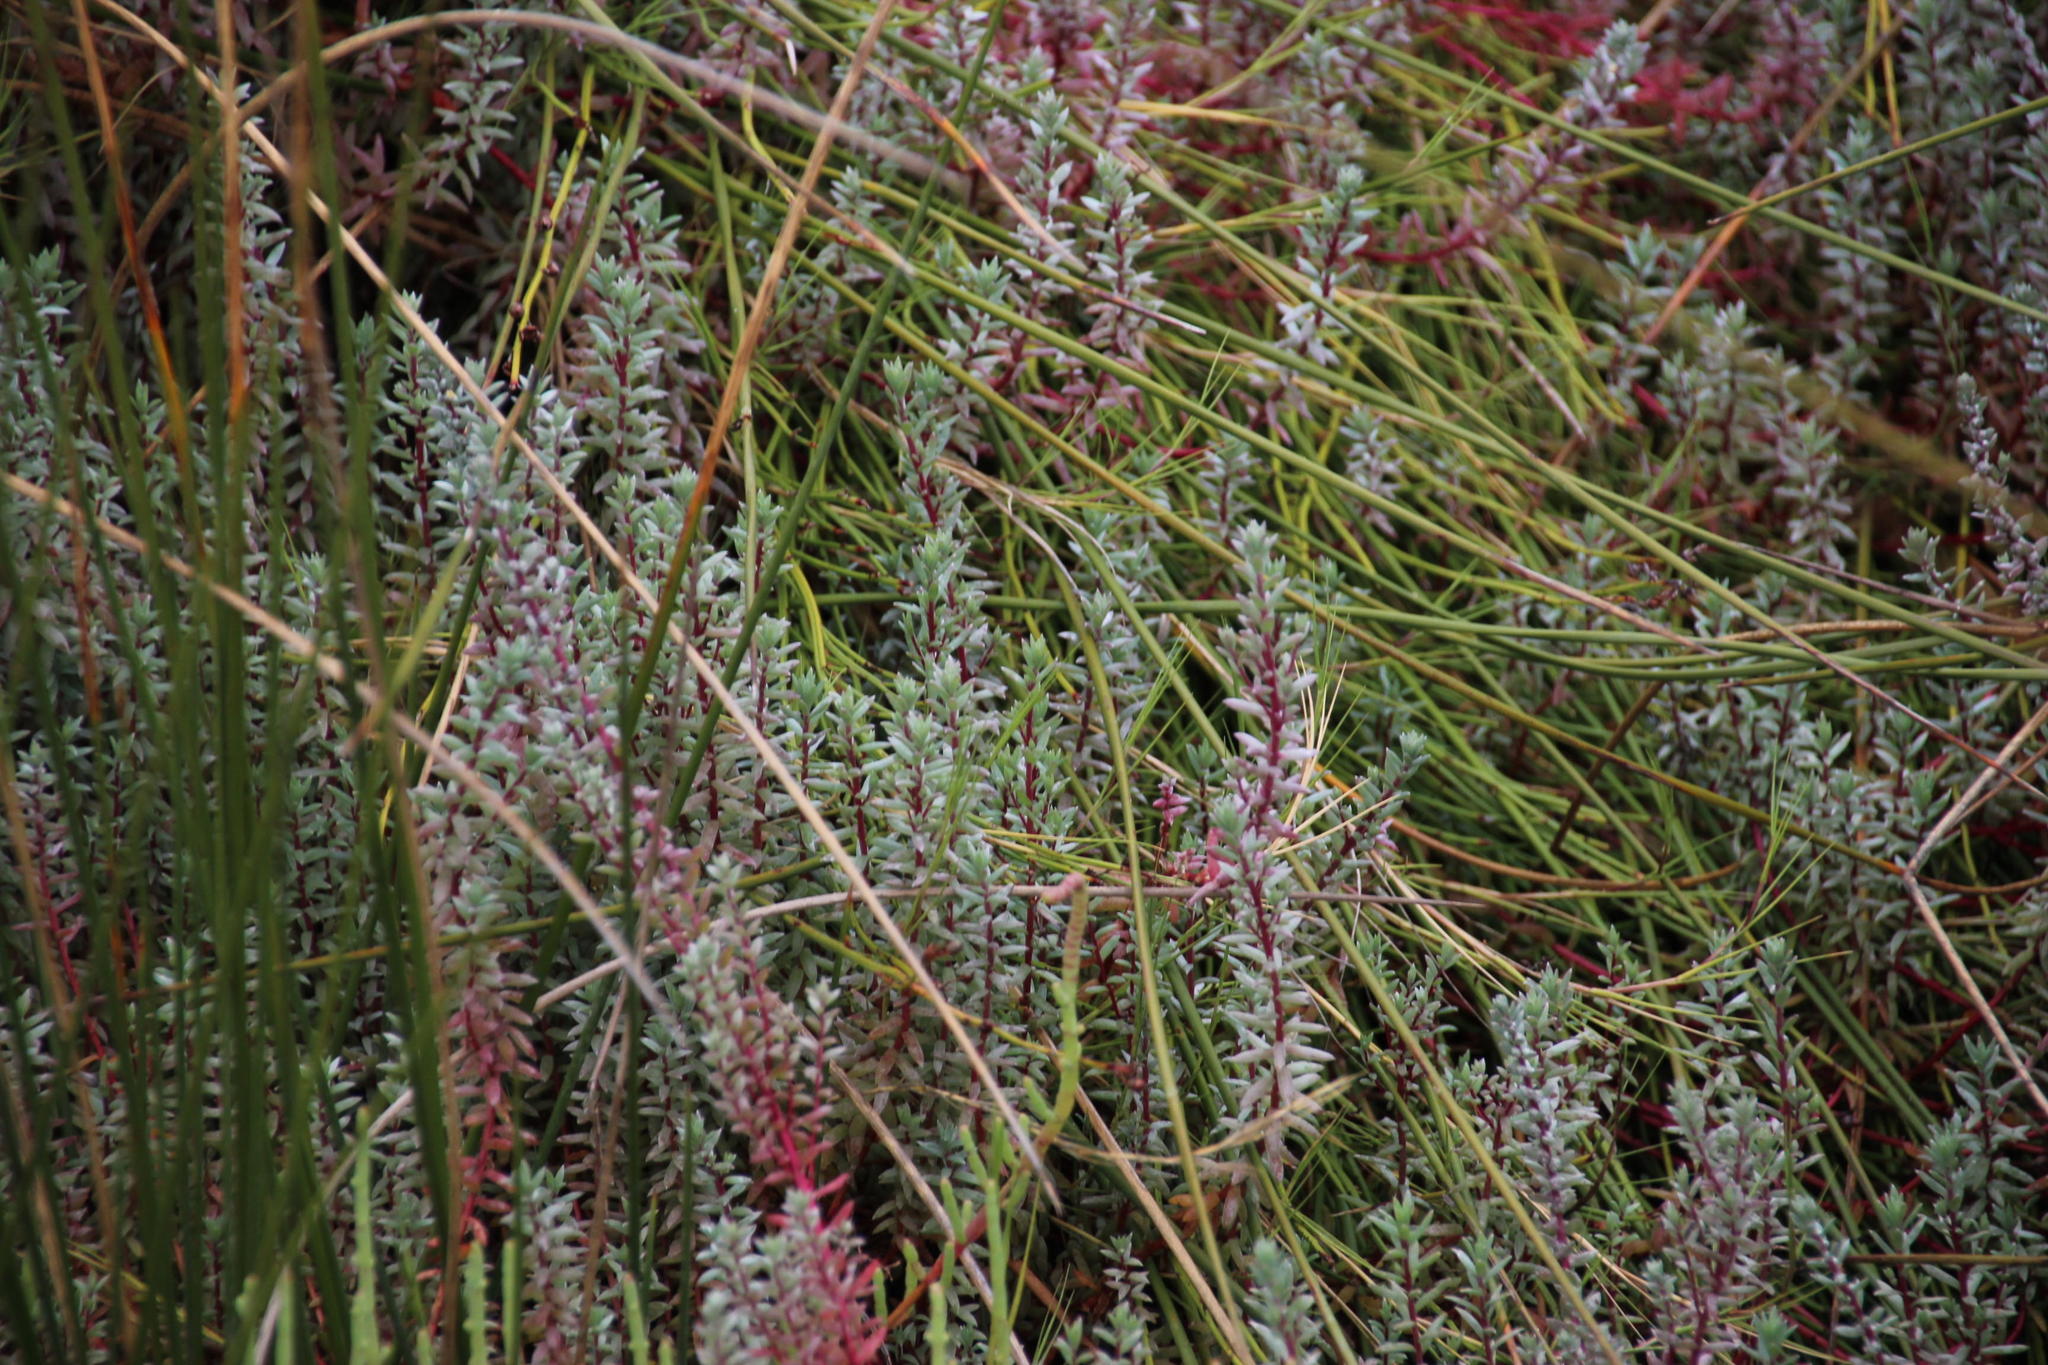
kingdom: Plantae
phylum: Tracheophyta
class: Magnoliopsida
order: Caryophyllales
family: Amaranthaceae
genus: Chenolea
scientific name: Chenolea diffusa
